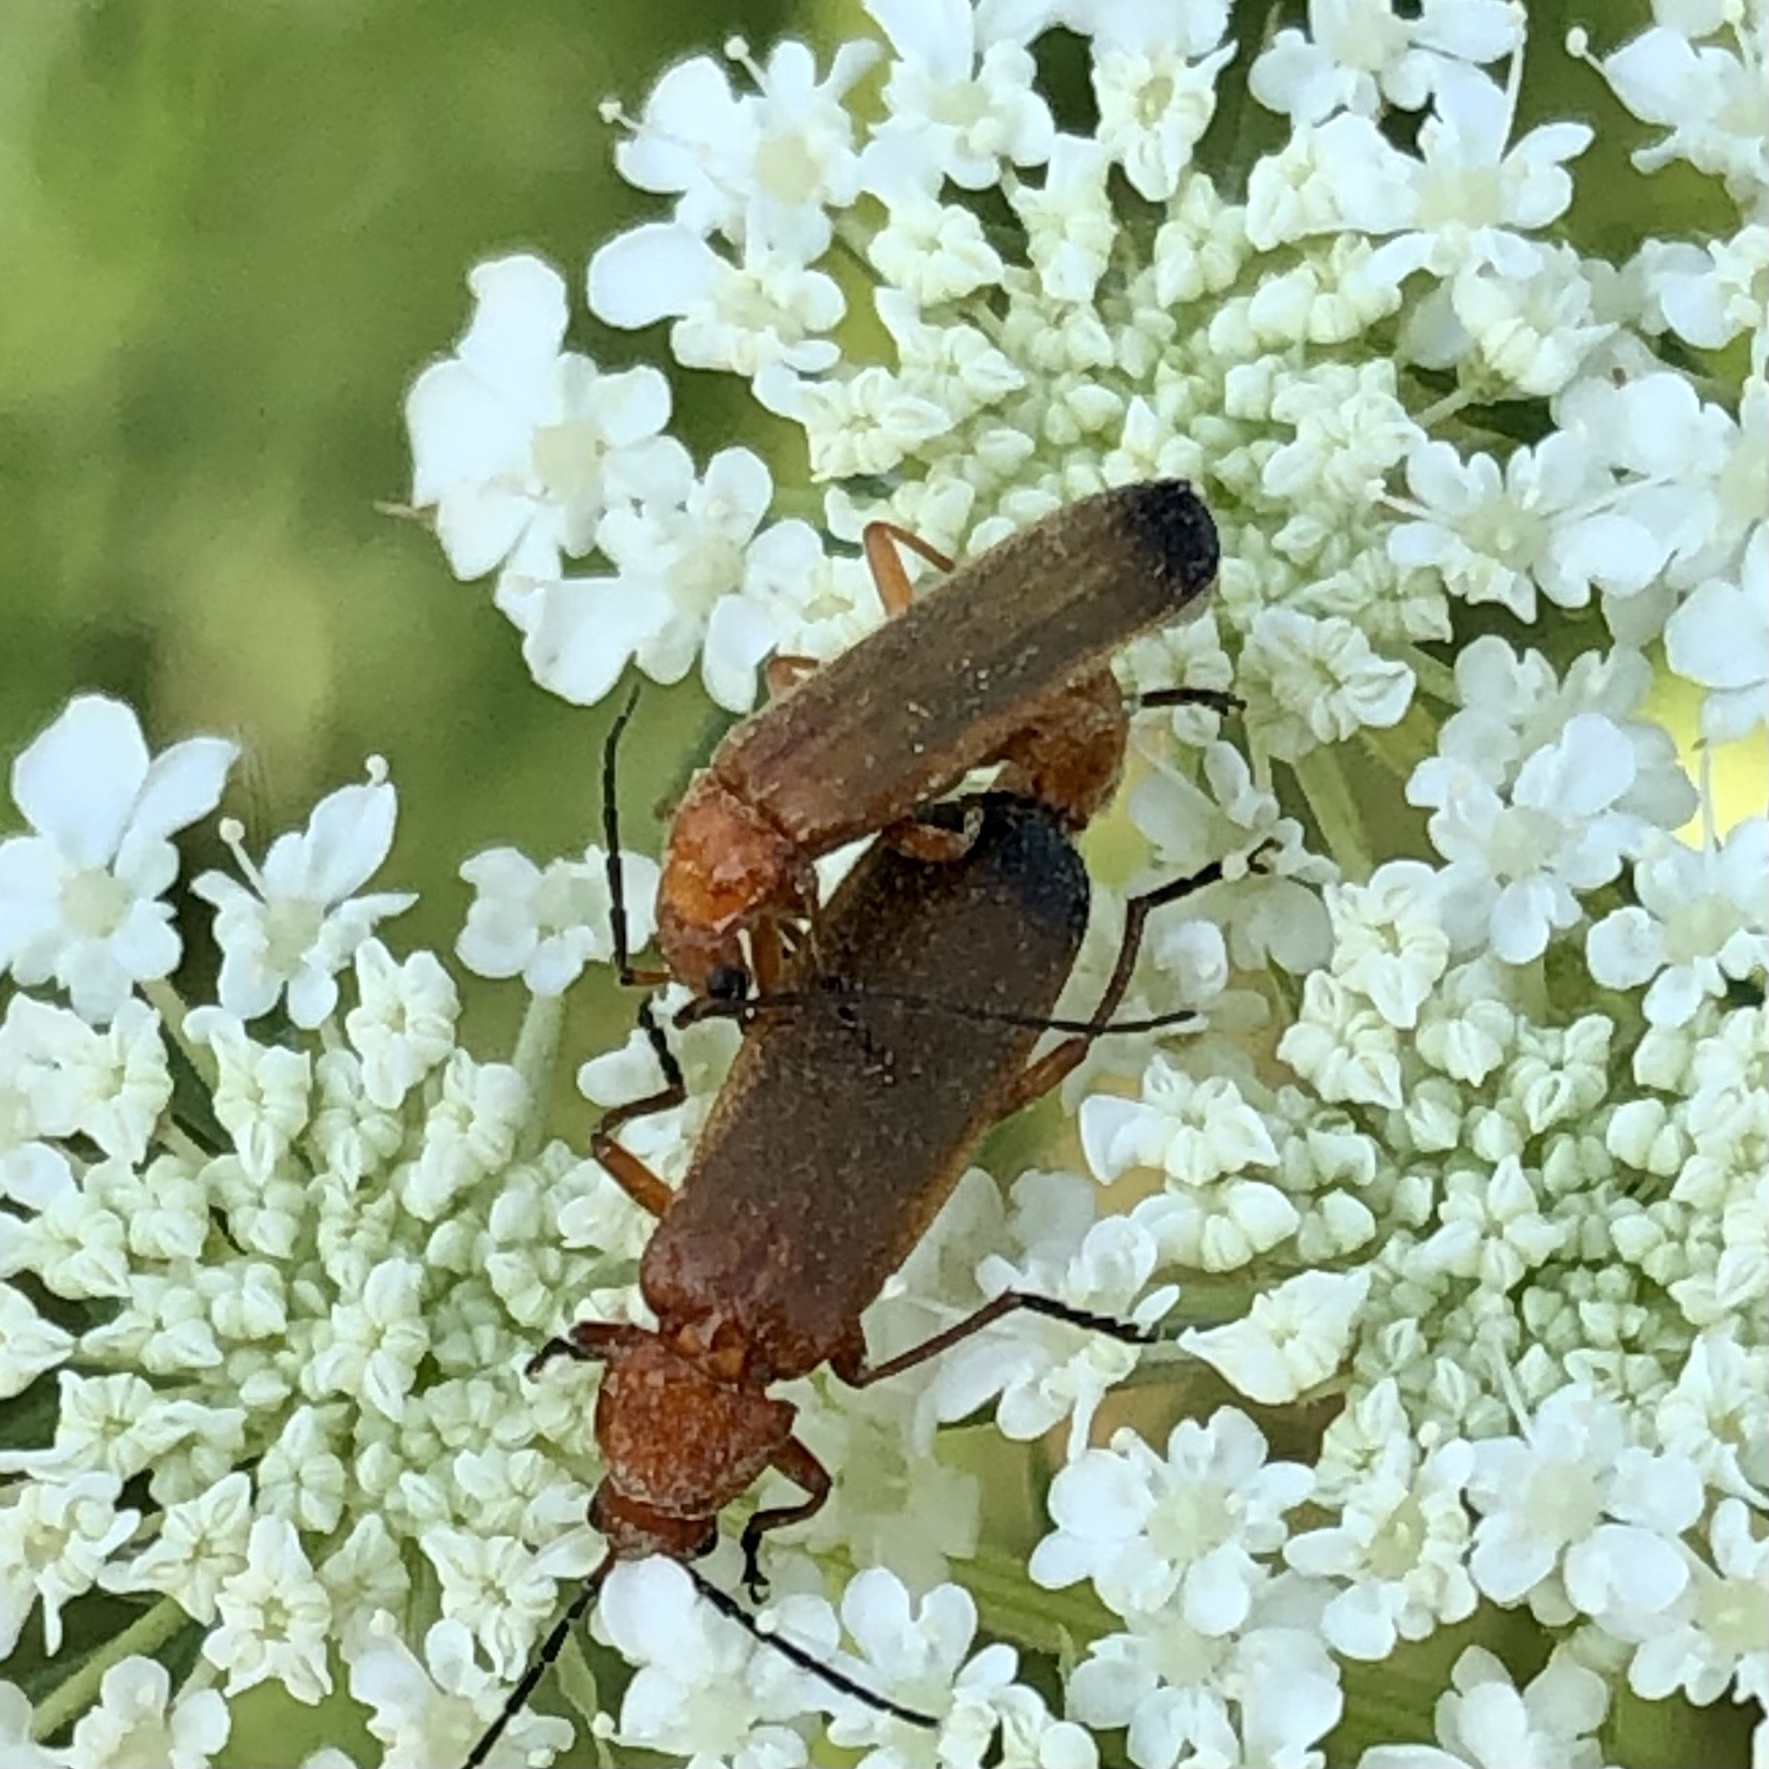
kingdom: Animalia
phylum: Arthropoda
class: Insecta
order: Coleoptera
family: Cantharidae
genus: Rhagonycha
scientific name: Rhagonycha fulva
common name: Common red soldier beetle
